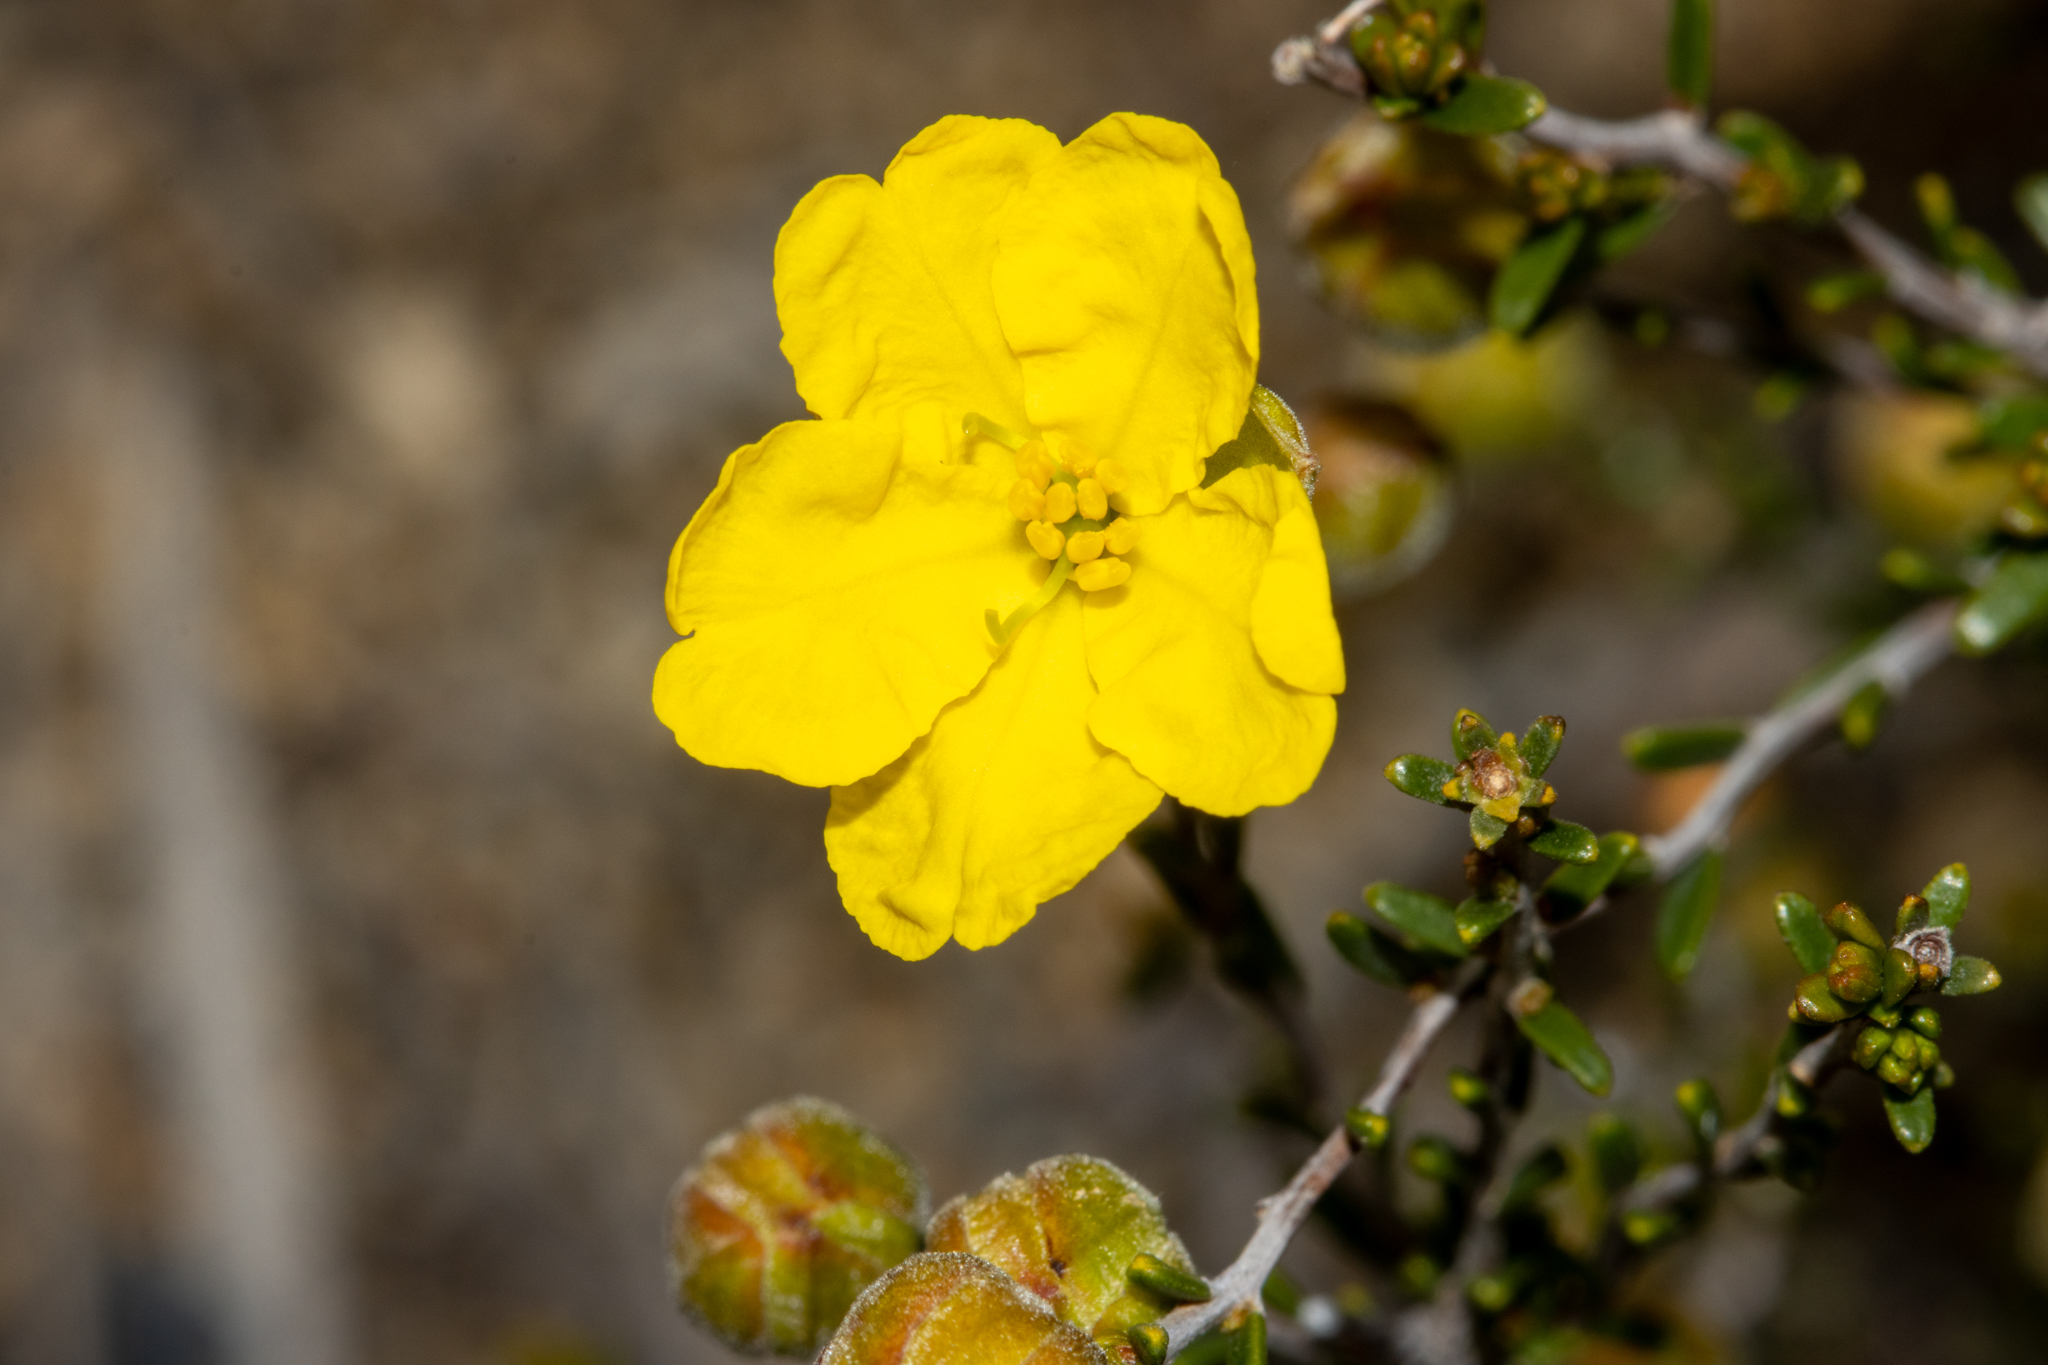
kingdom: Plantae
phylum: Tracheophyta
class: Magnoliopsida
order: Dilleniales
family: Dilleniaceae
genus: Hibbertia
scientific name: Hibbertia glabriuscula
